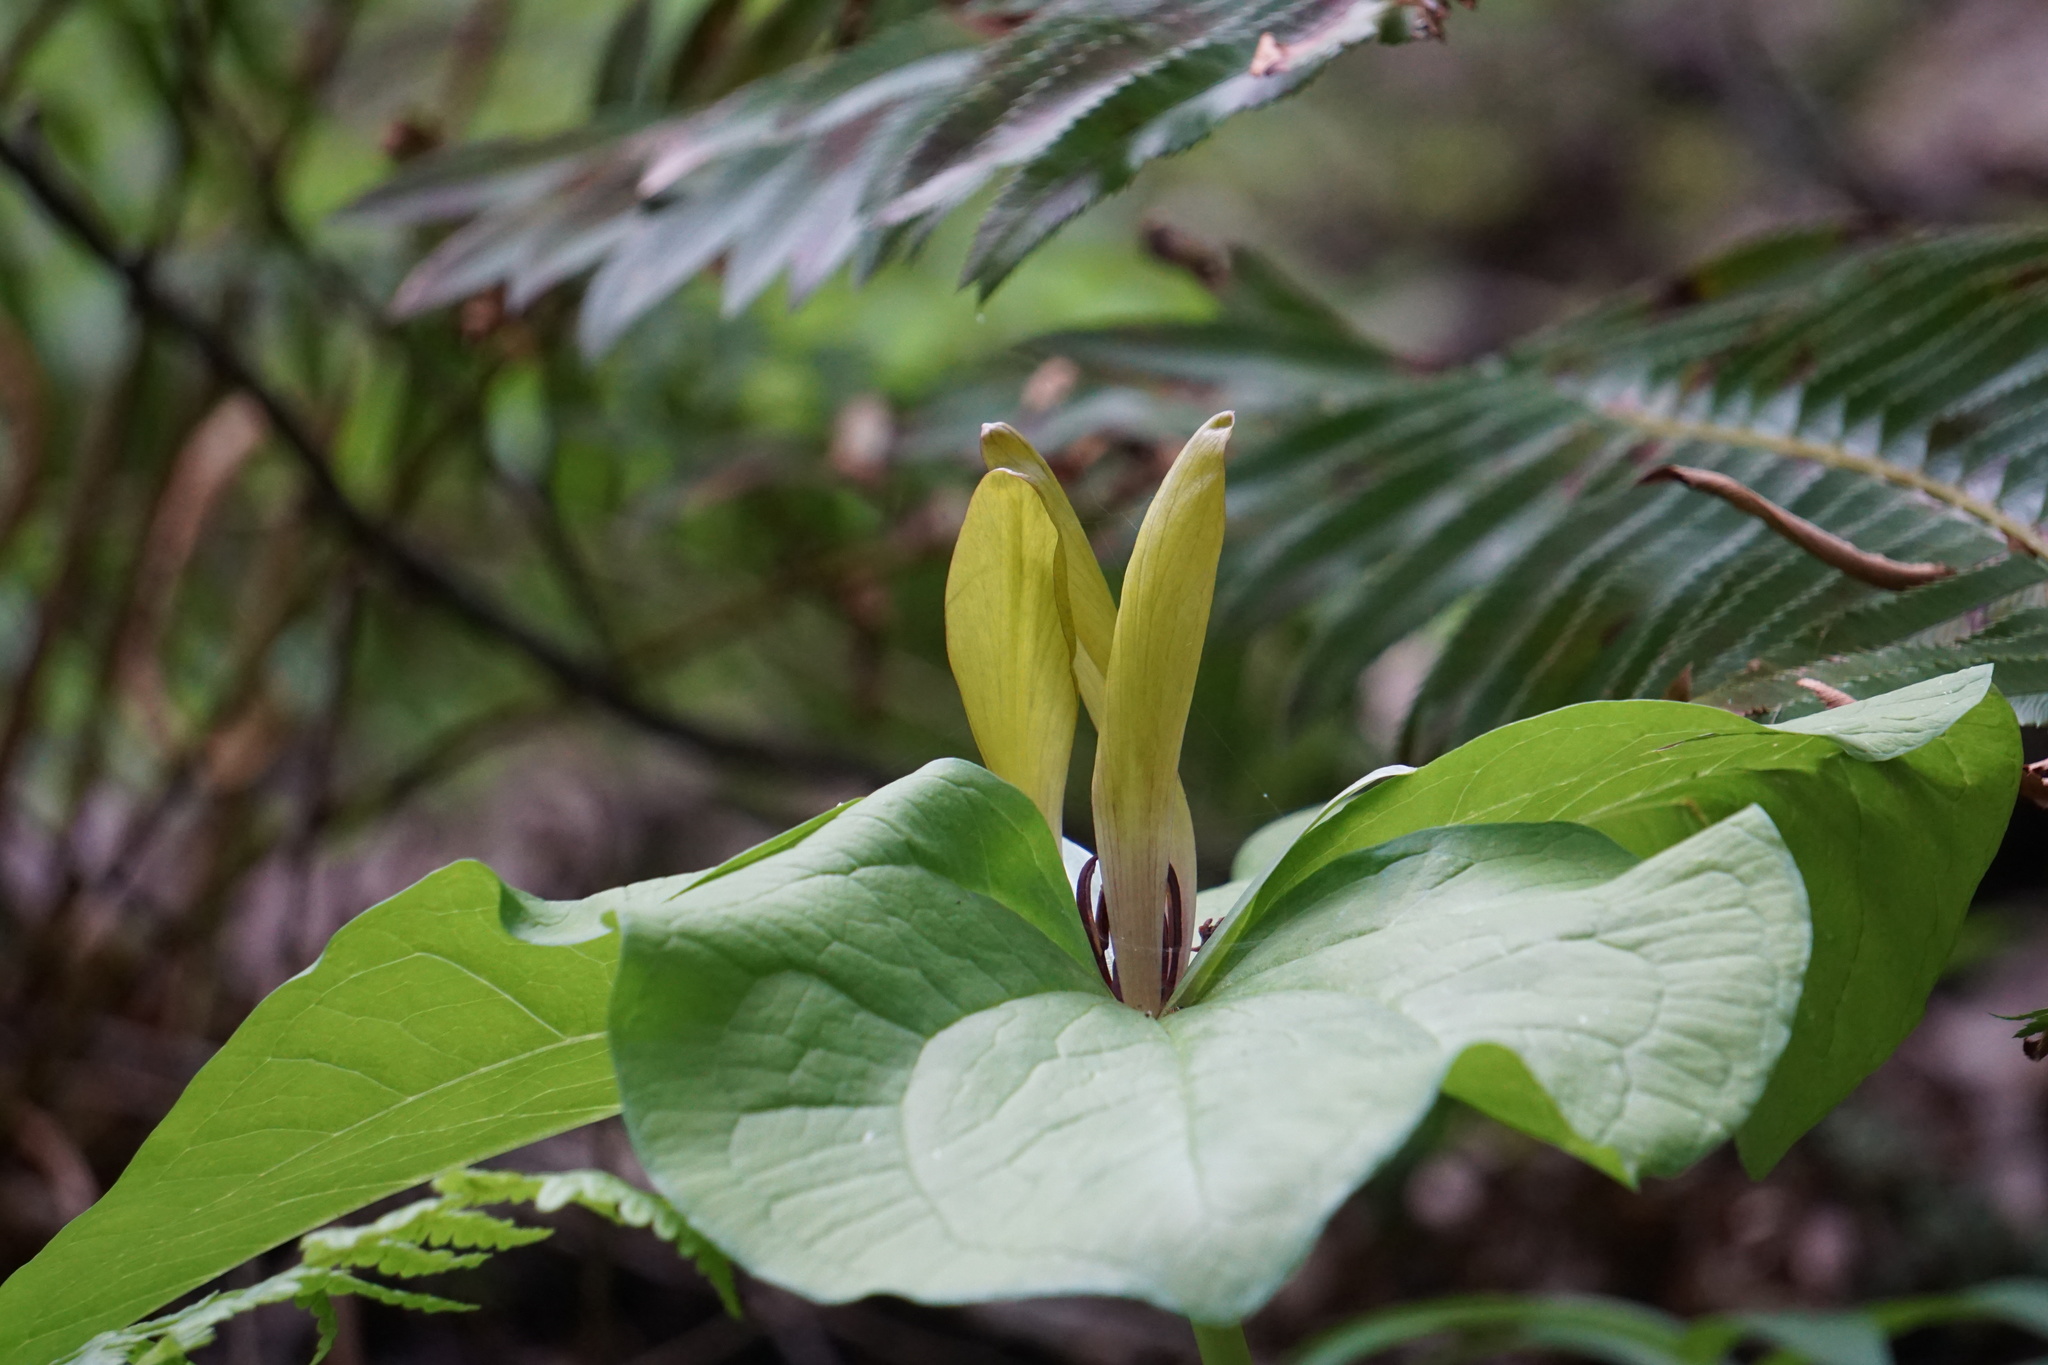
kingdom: Plantae
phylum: Tracheophyta
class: Liliopsida
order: Liliales
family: Melanthiaceae
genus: Trillium
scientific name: Trillium chloropetalum
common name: Giant trillium
